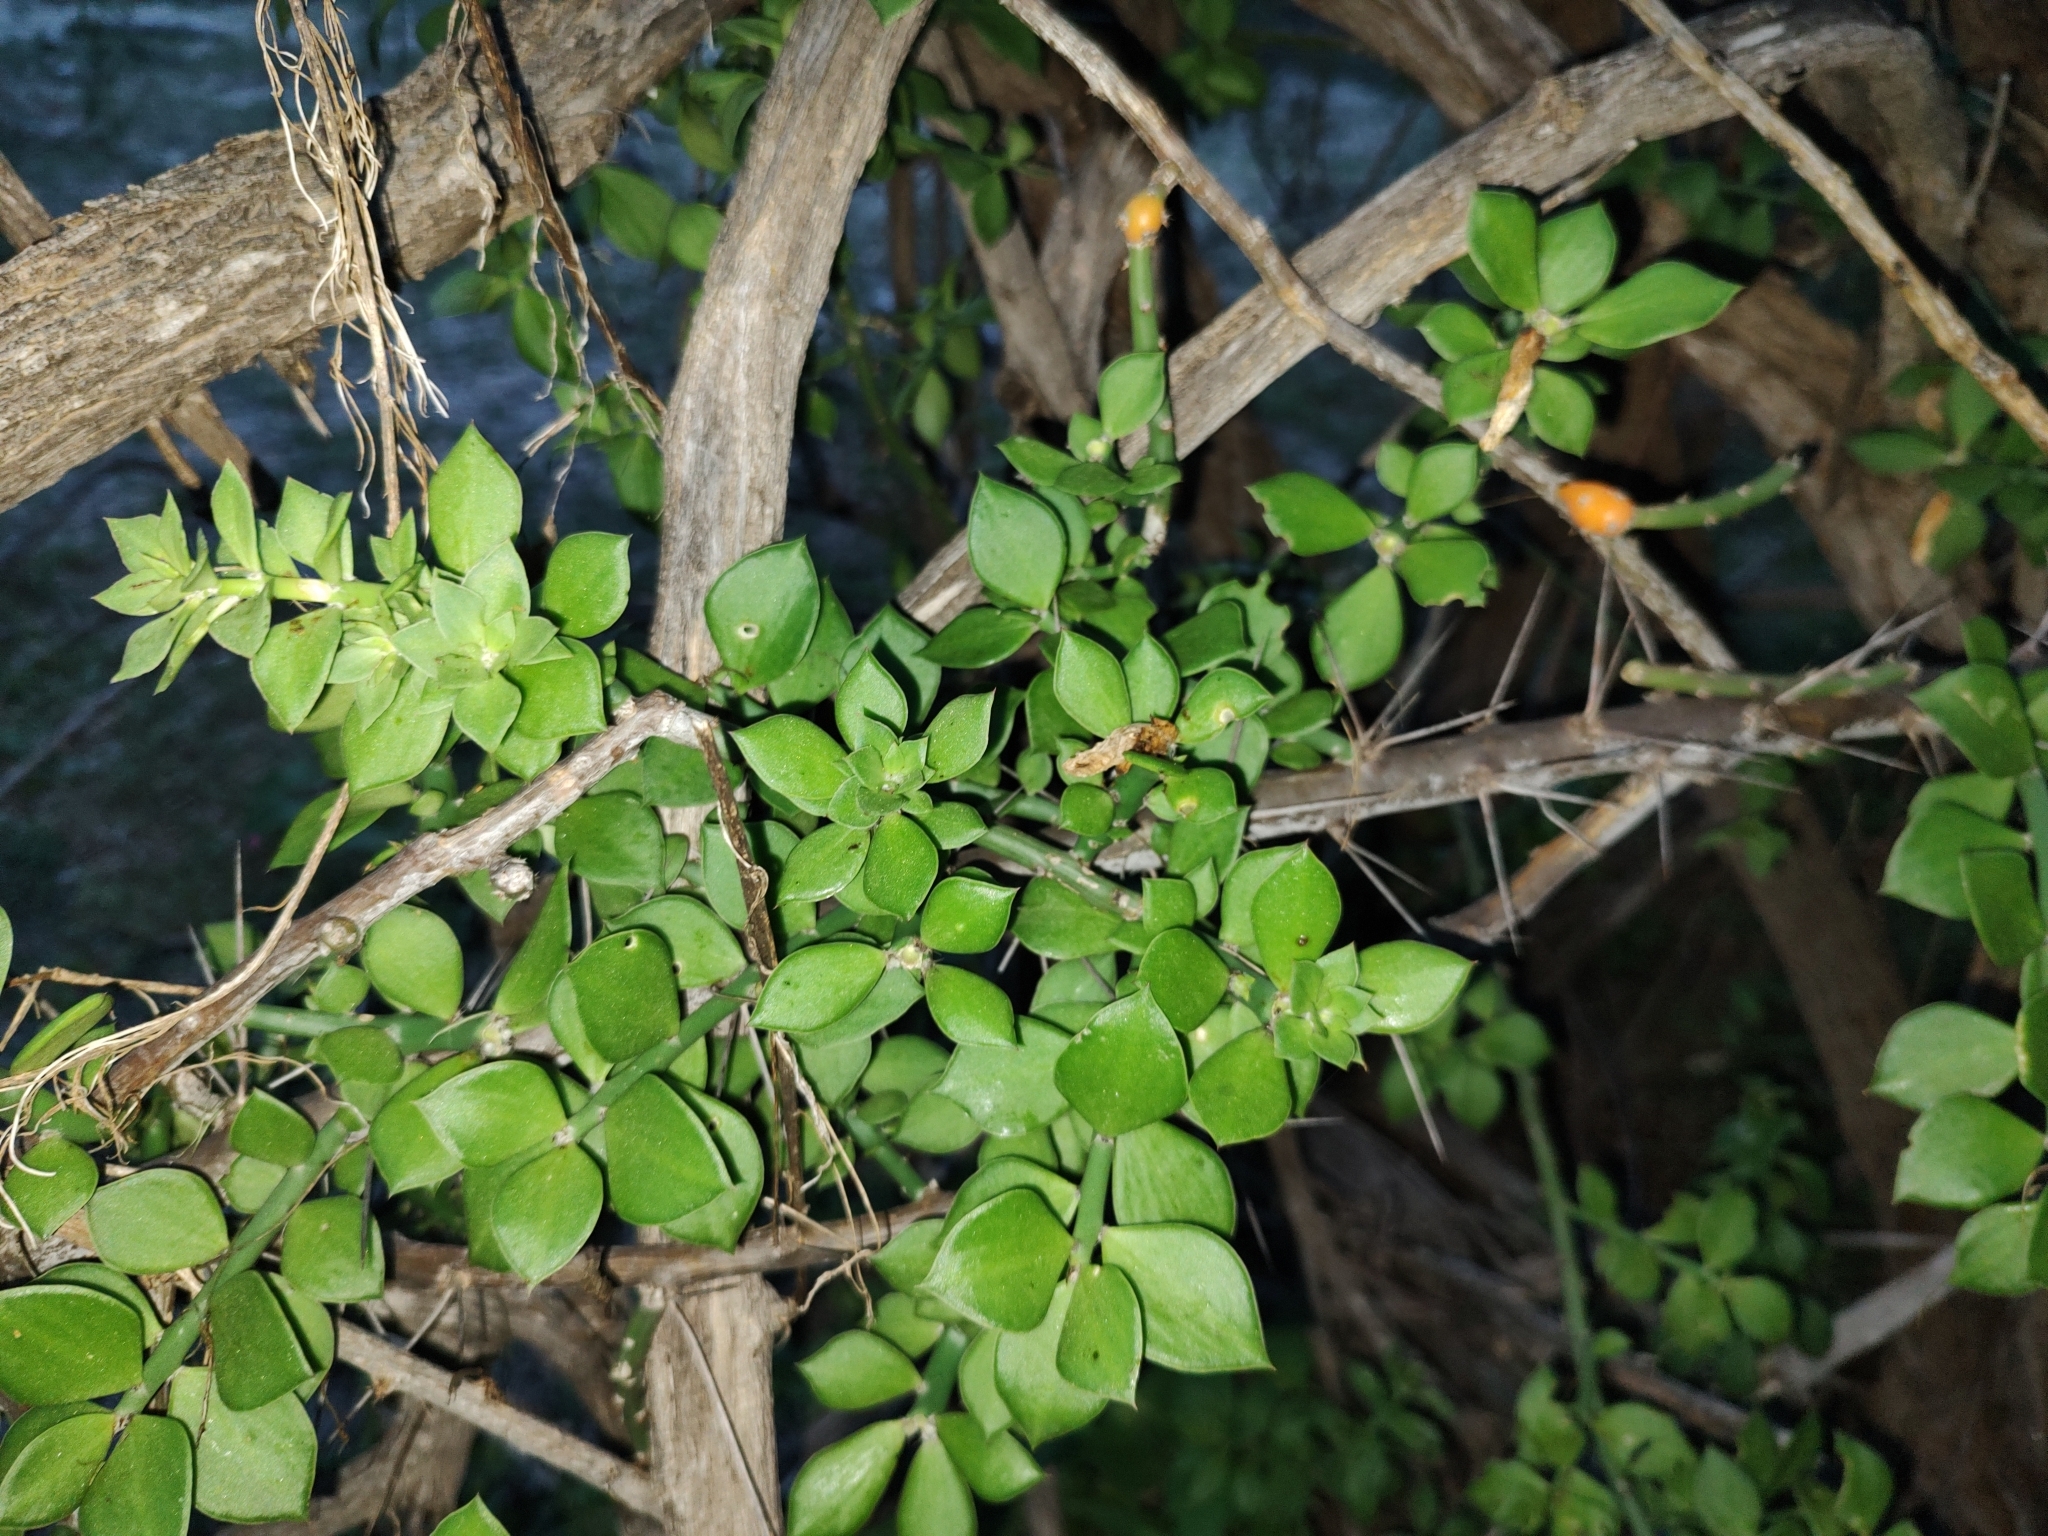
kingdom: Plantae
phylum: Tracheophyta
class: Magnoliopsida
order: Caryophyllales
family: Cactaceae
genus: Pereskiopsis
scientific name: Pereskiopsis porteri
